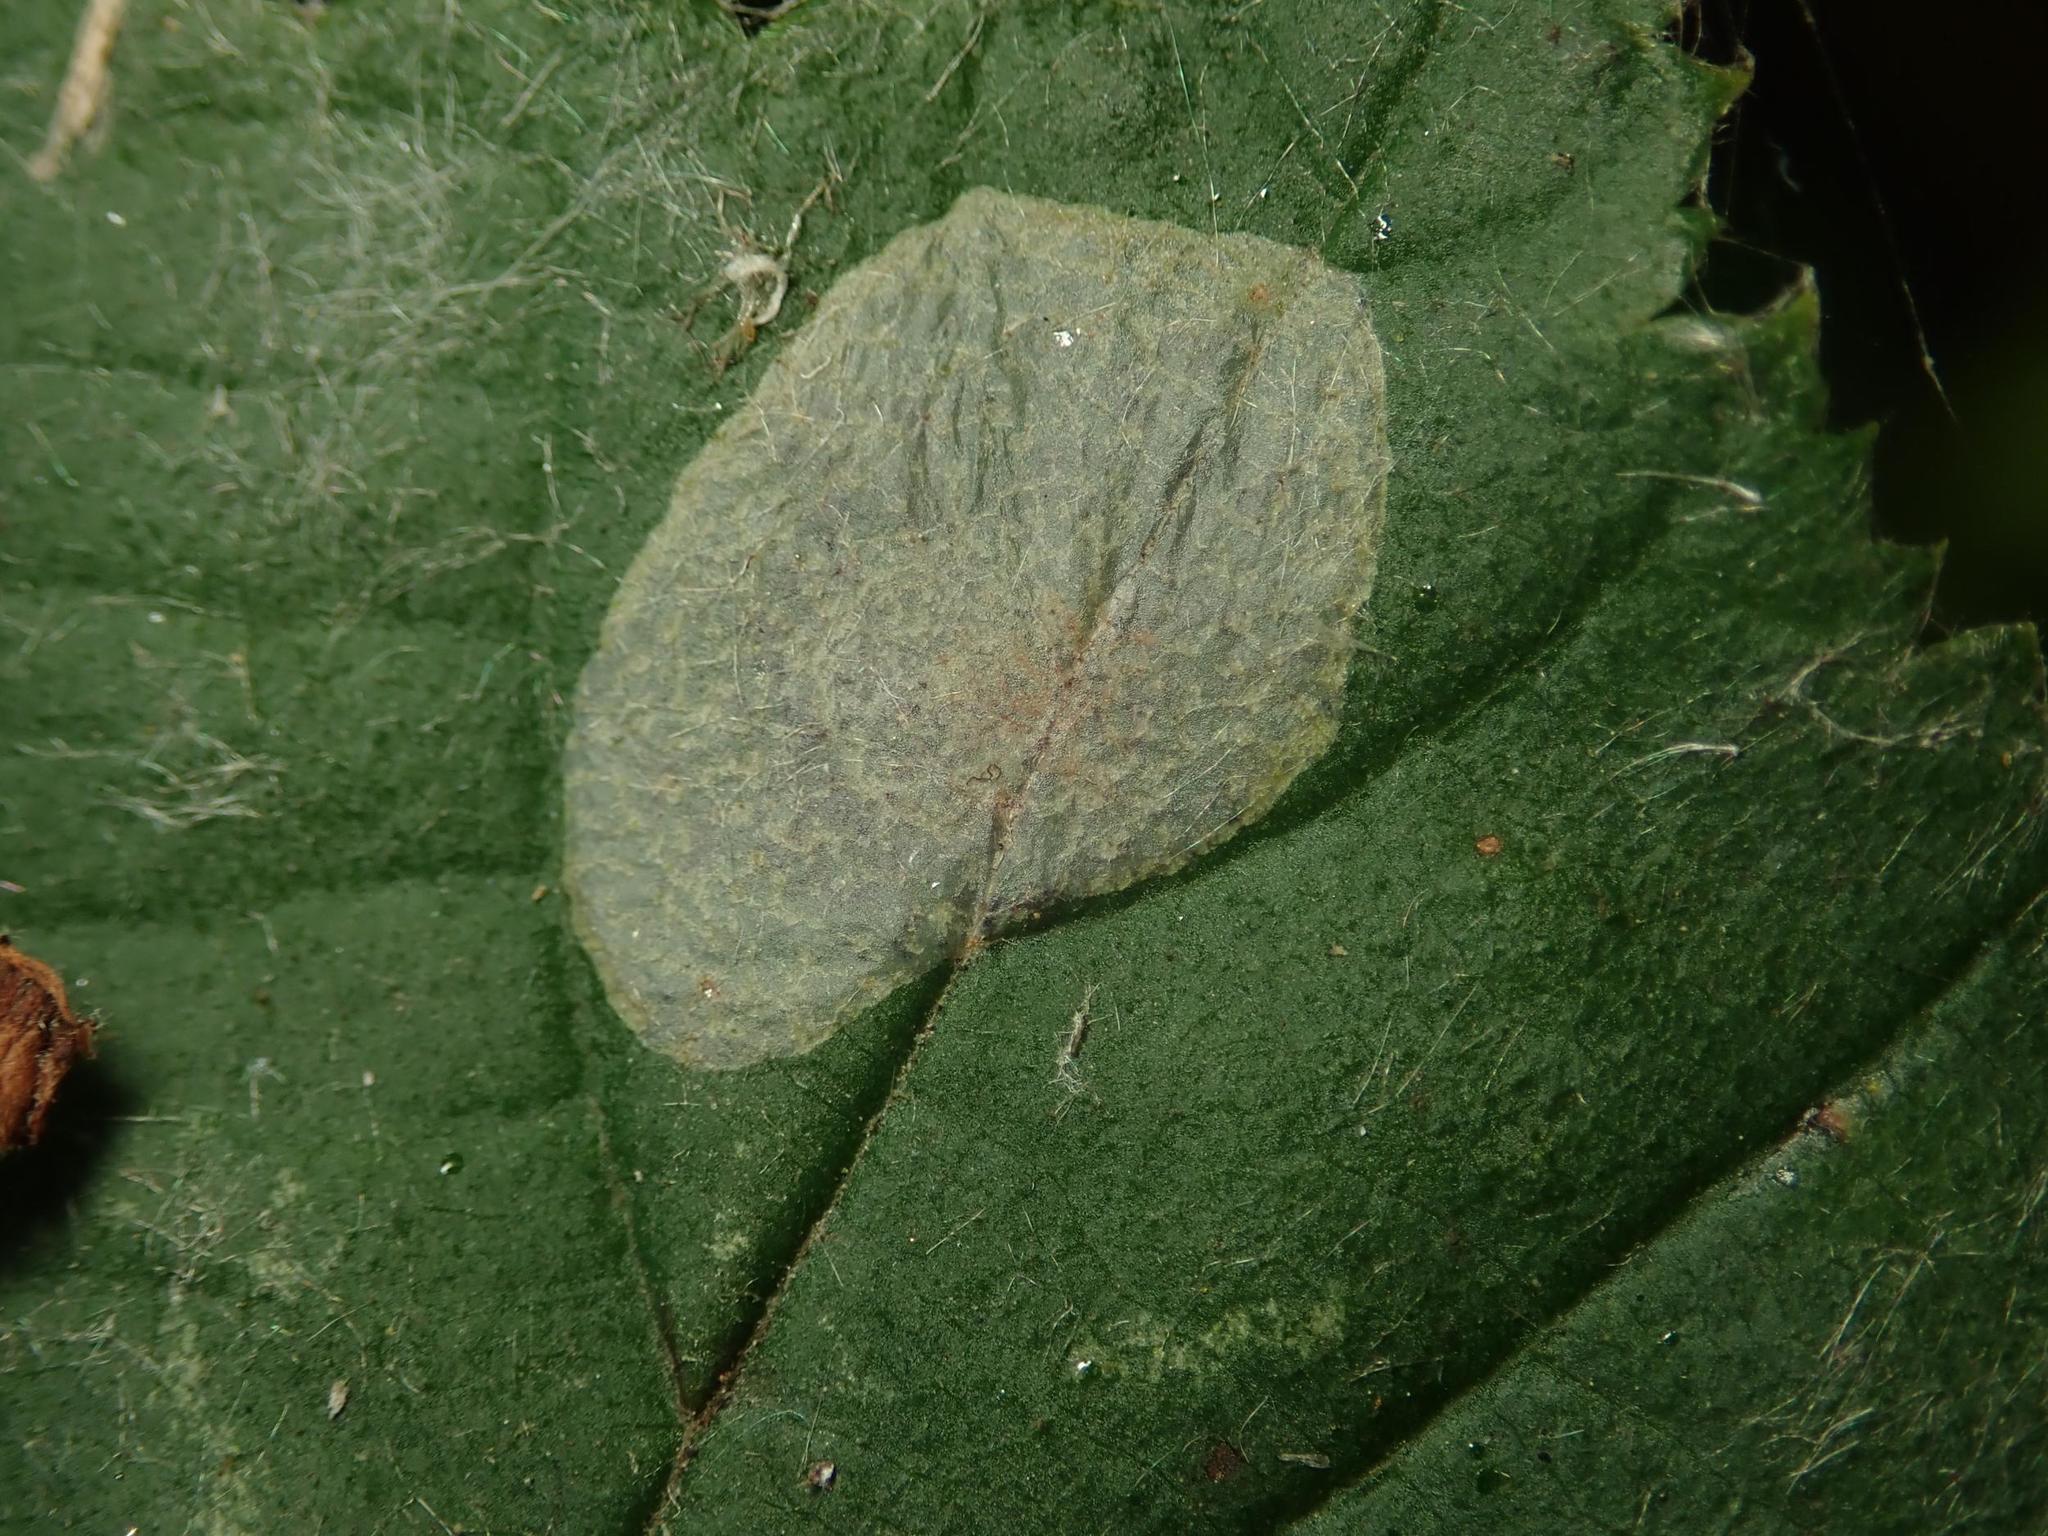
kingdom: Animalia
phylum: Arthropoda
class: Insecta
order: Lepidoptera
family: Gracillariidae
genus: Phyllonorycter
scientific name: Phyllonorycter coryli
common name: Nut-leaf blister moth
